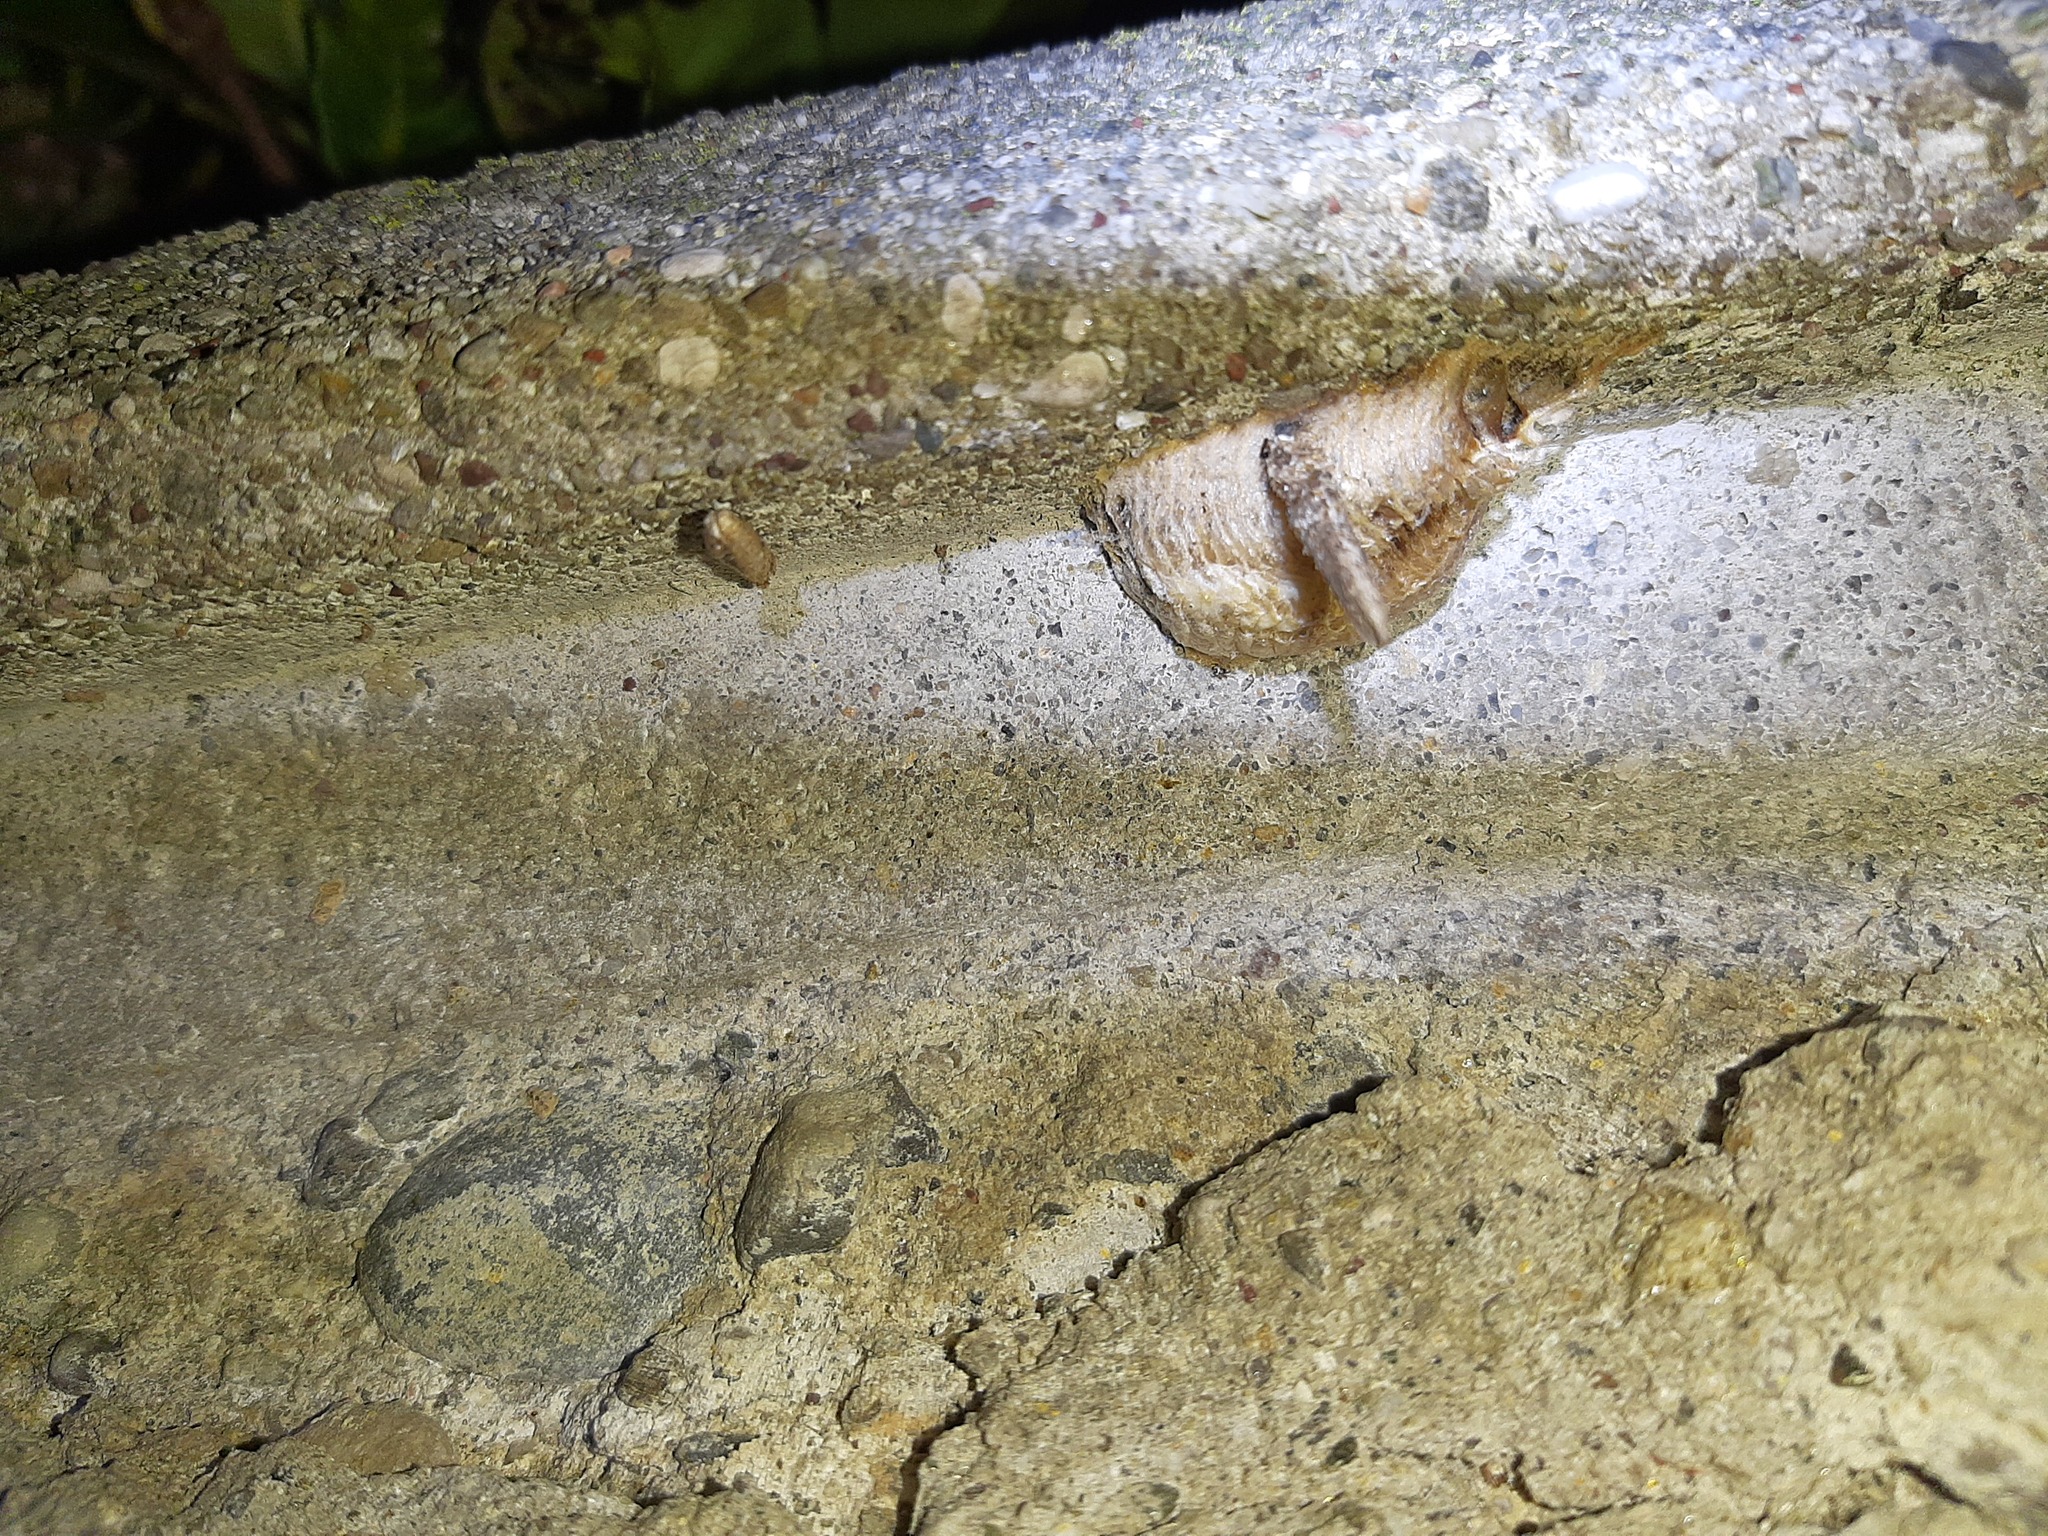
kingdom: Animalia
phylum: Arthropoda
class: Insecta
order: Mantodea
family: Mantidae
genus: Mantis
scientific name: Mantis religiosa
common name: Praying mantis
